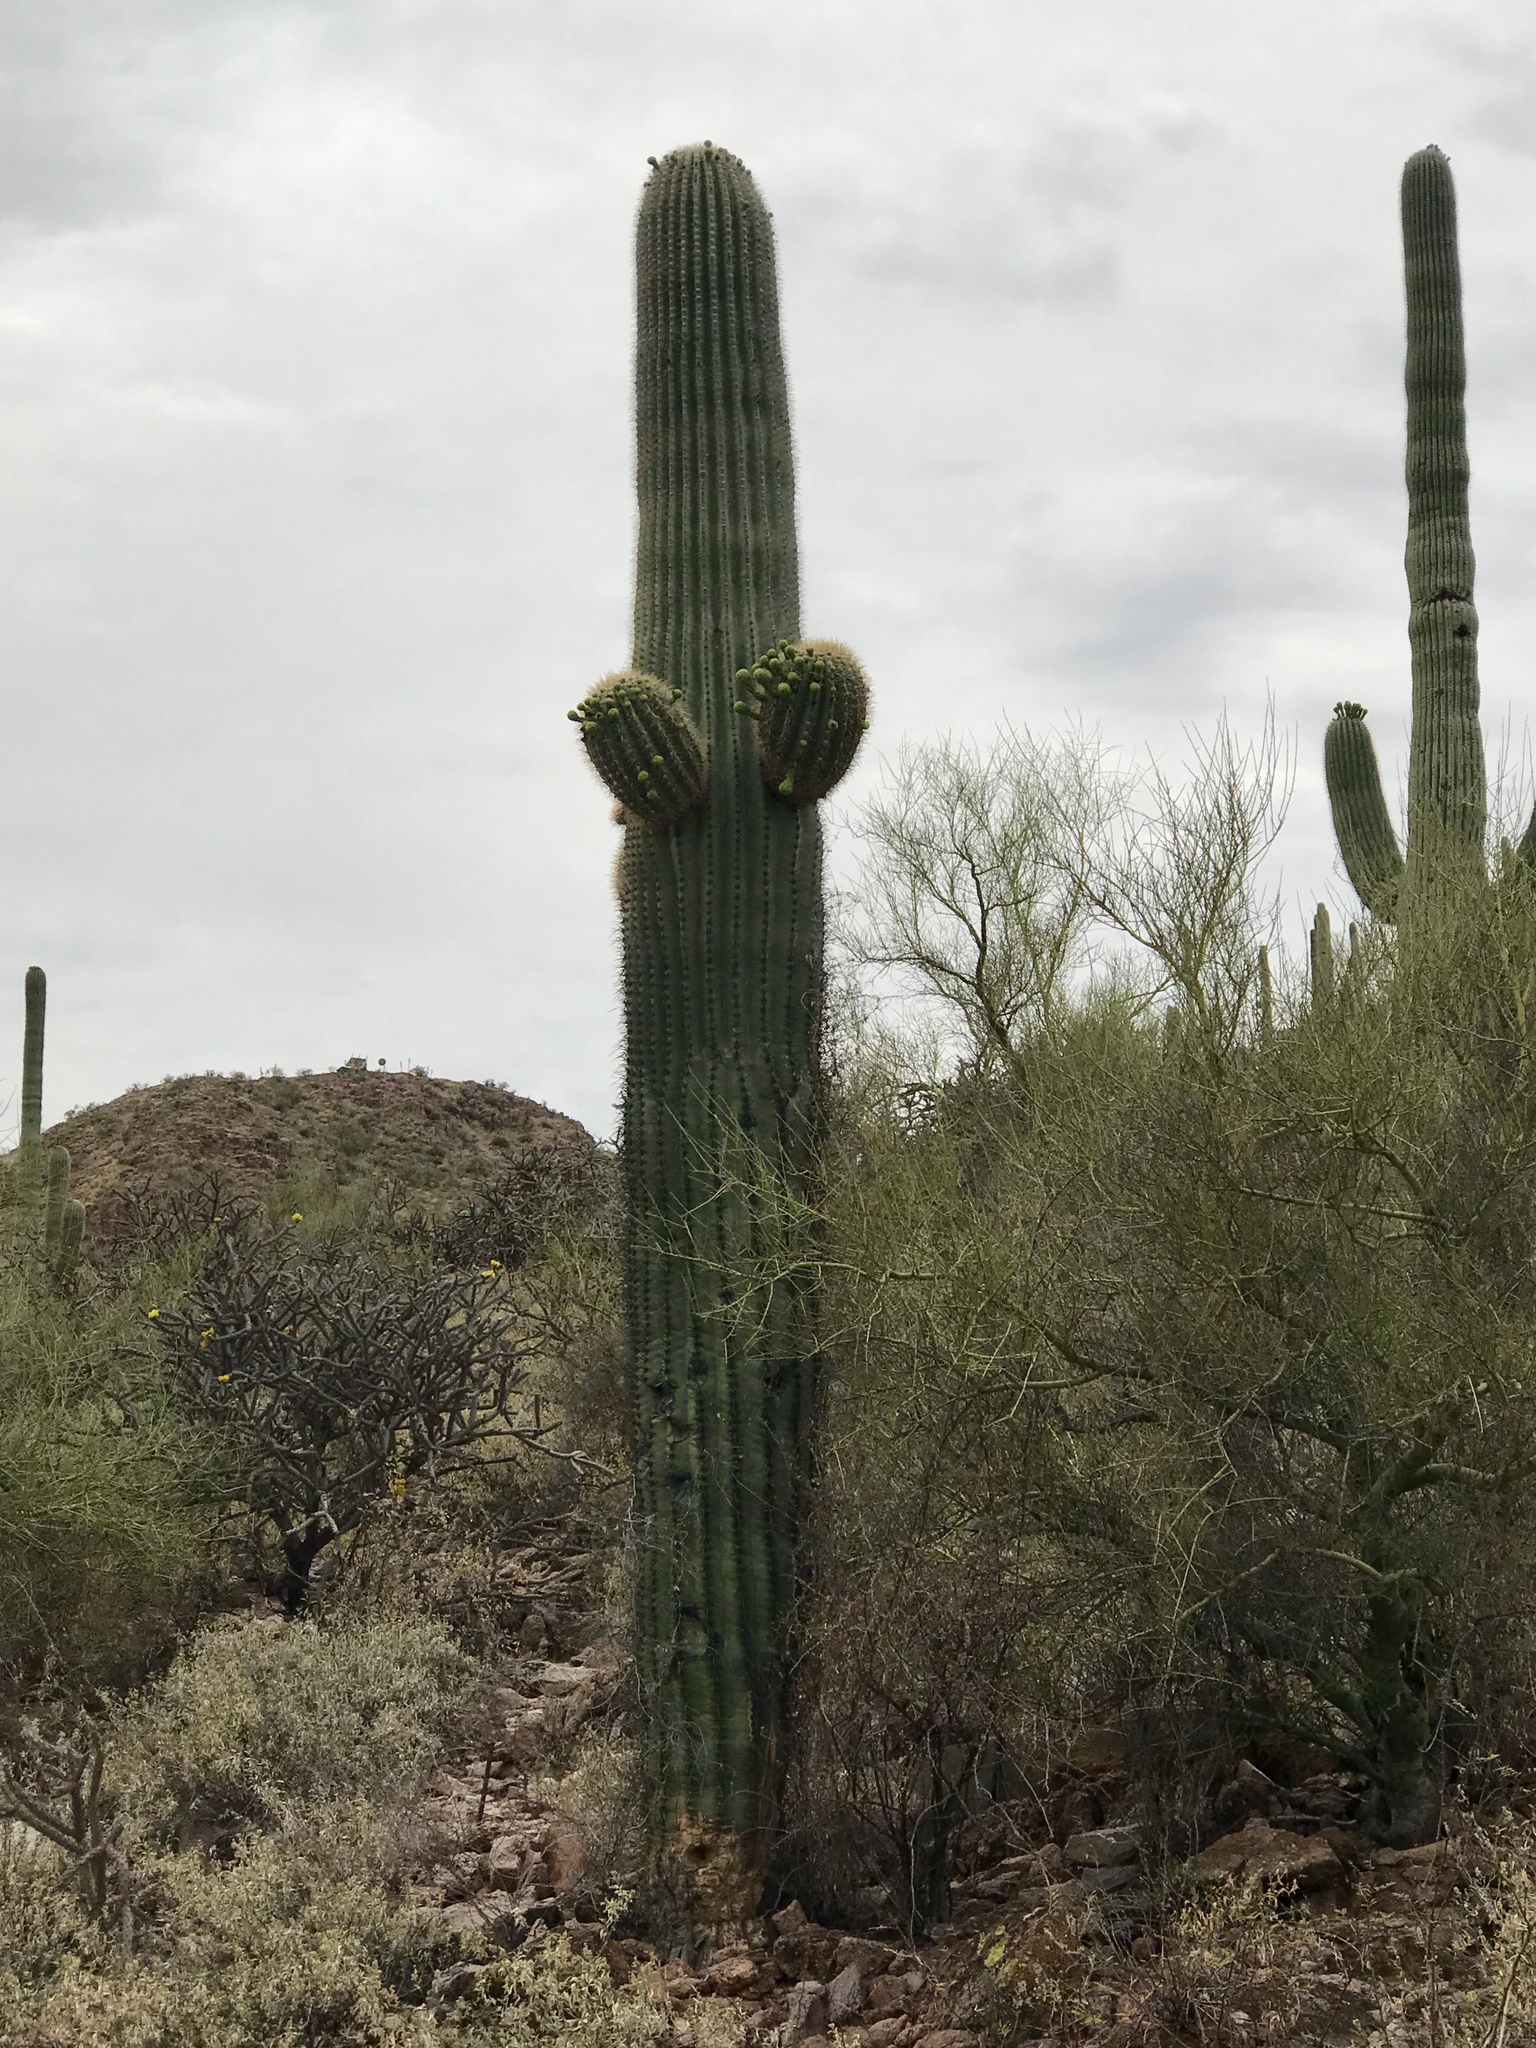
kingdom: Plantae
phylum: Tracheophyta
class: Magnoliopsida
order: Caryophyllales
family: Cactaceae
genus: Carnegiea
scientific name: Carnegiea gigantea
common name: Saguaro
